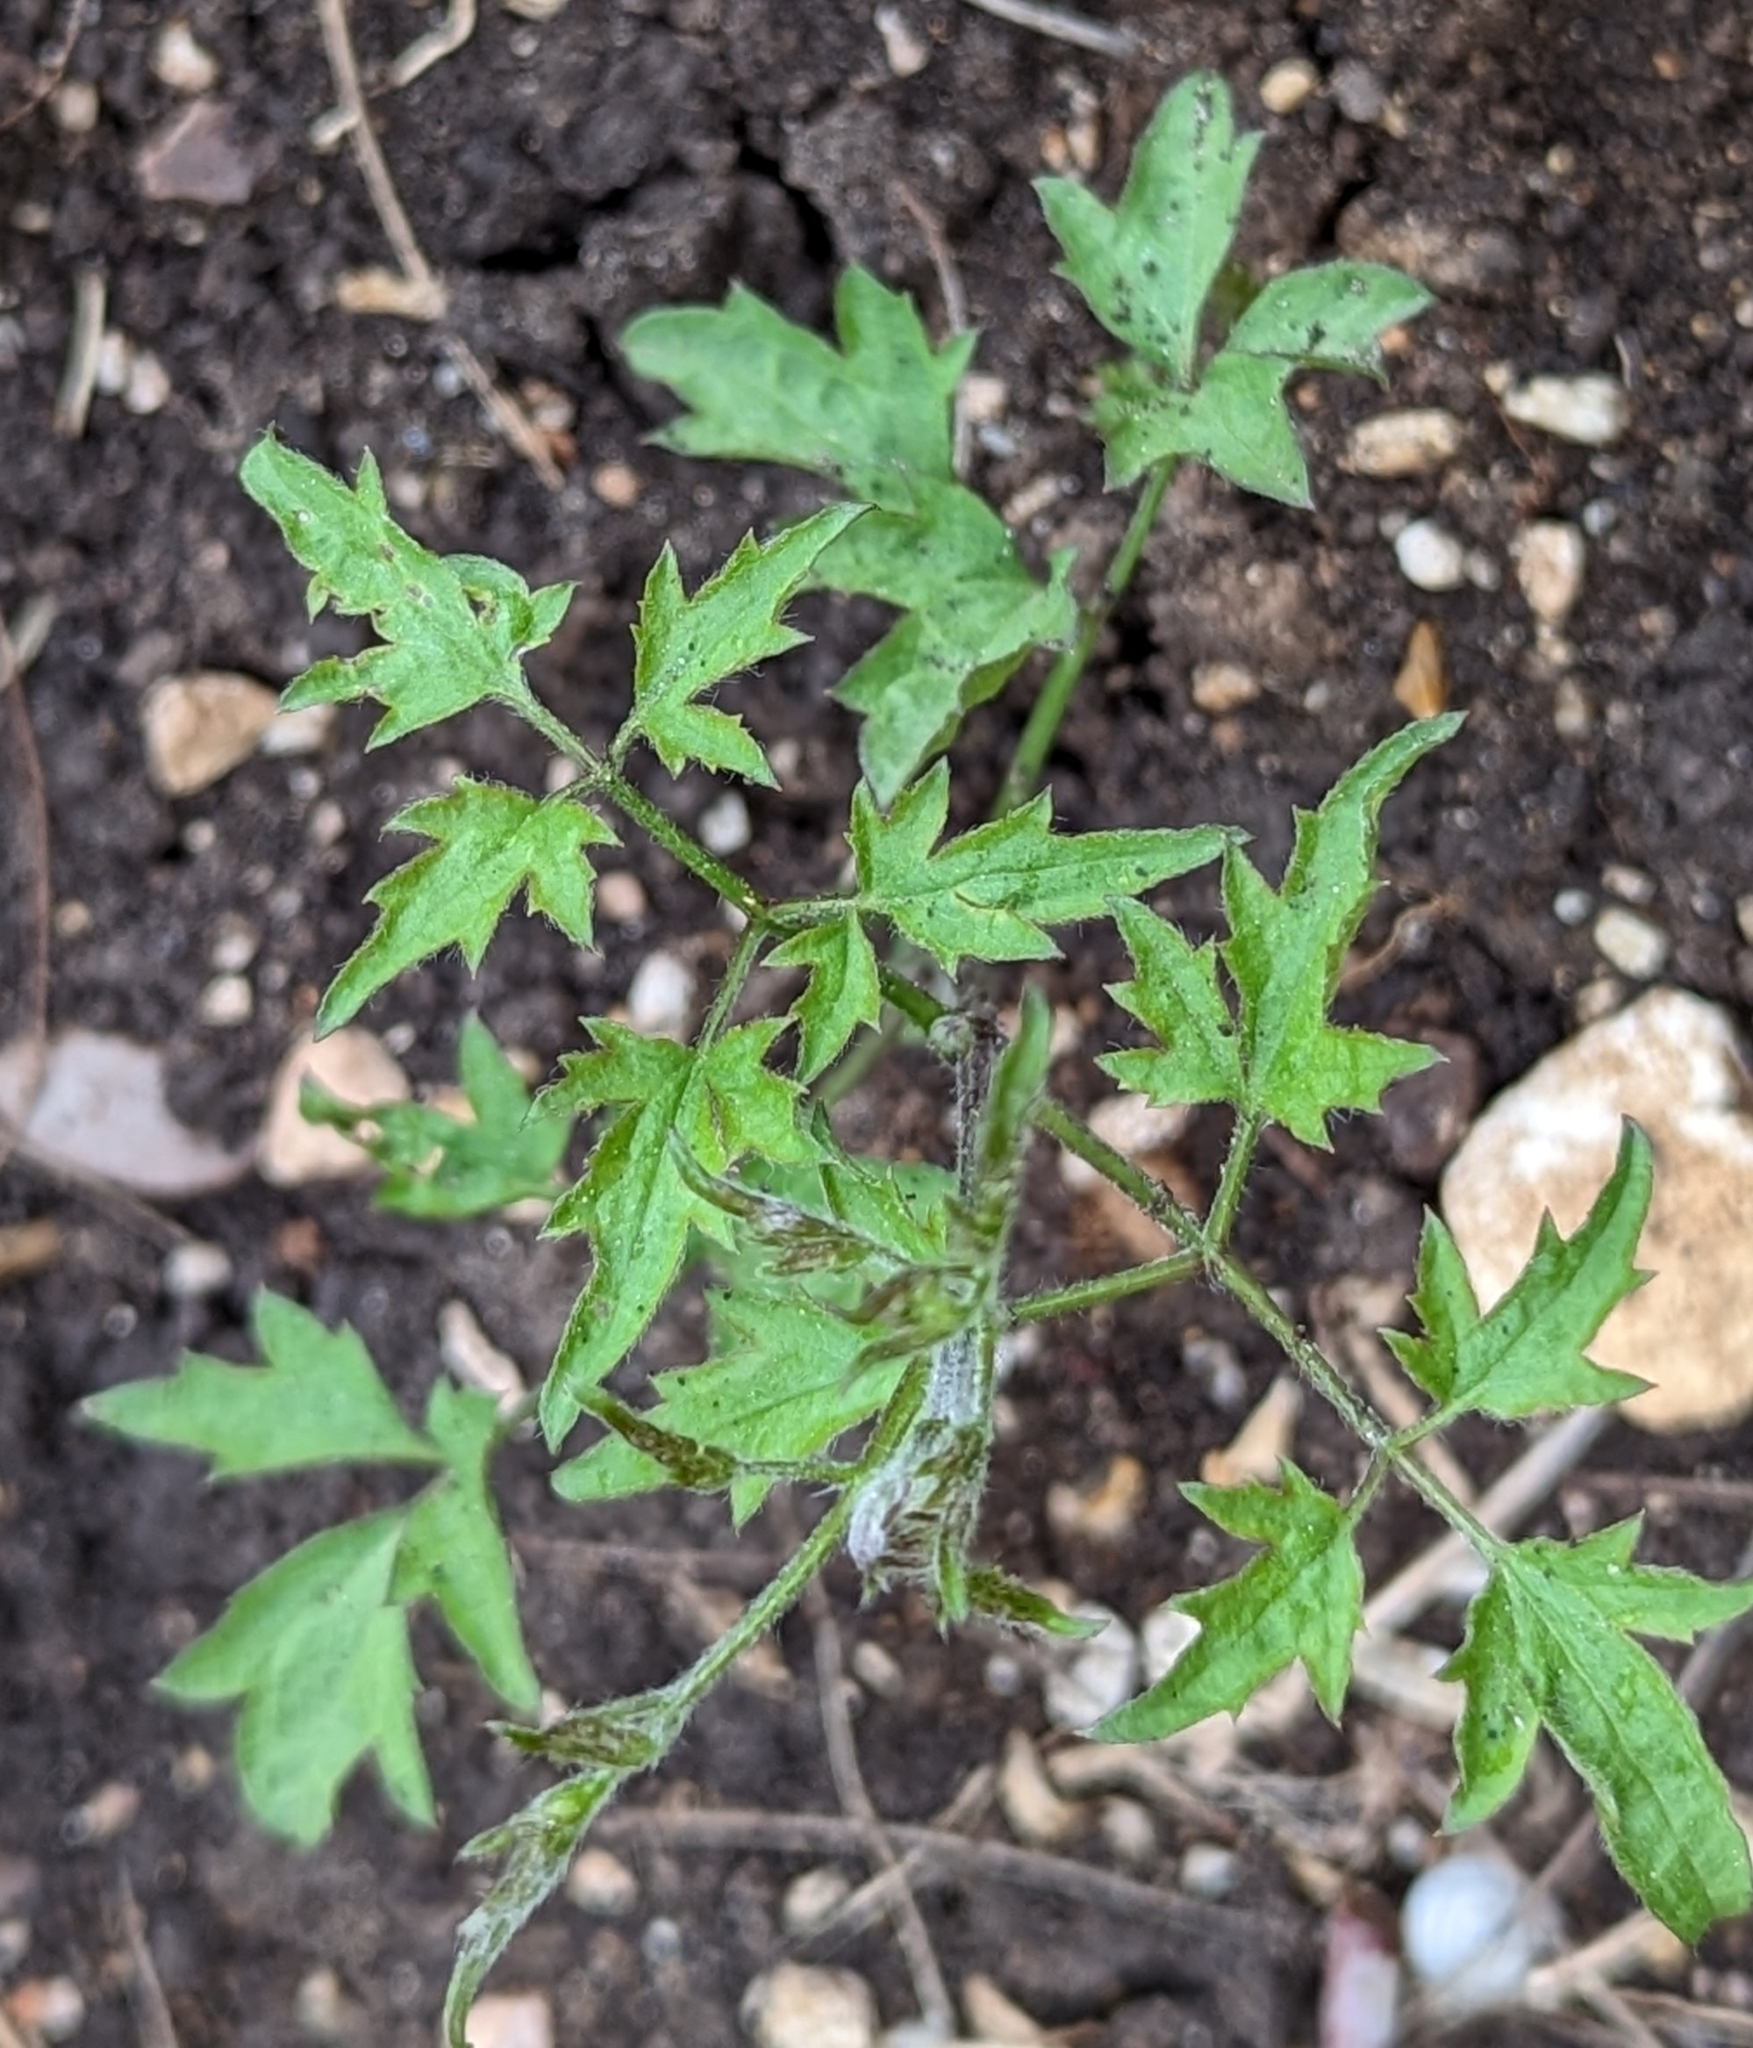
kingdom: Plantae
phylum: Tracheophyta
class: Magnoliopsida
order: Ranunculales
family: Ranunculaceae
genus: Clematis
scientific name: Clematis drummondii
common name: Texas virgin's bower
